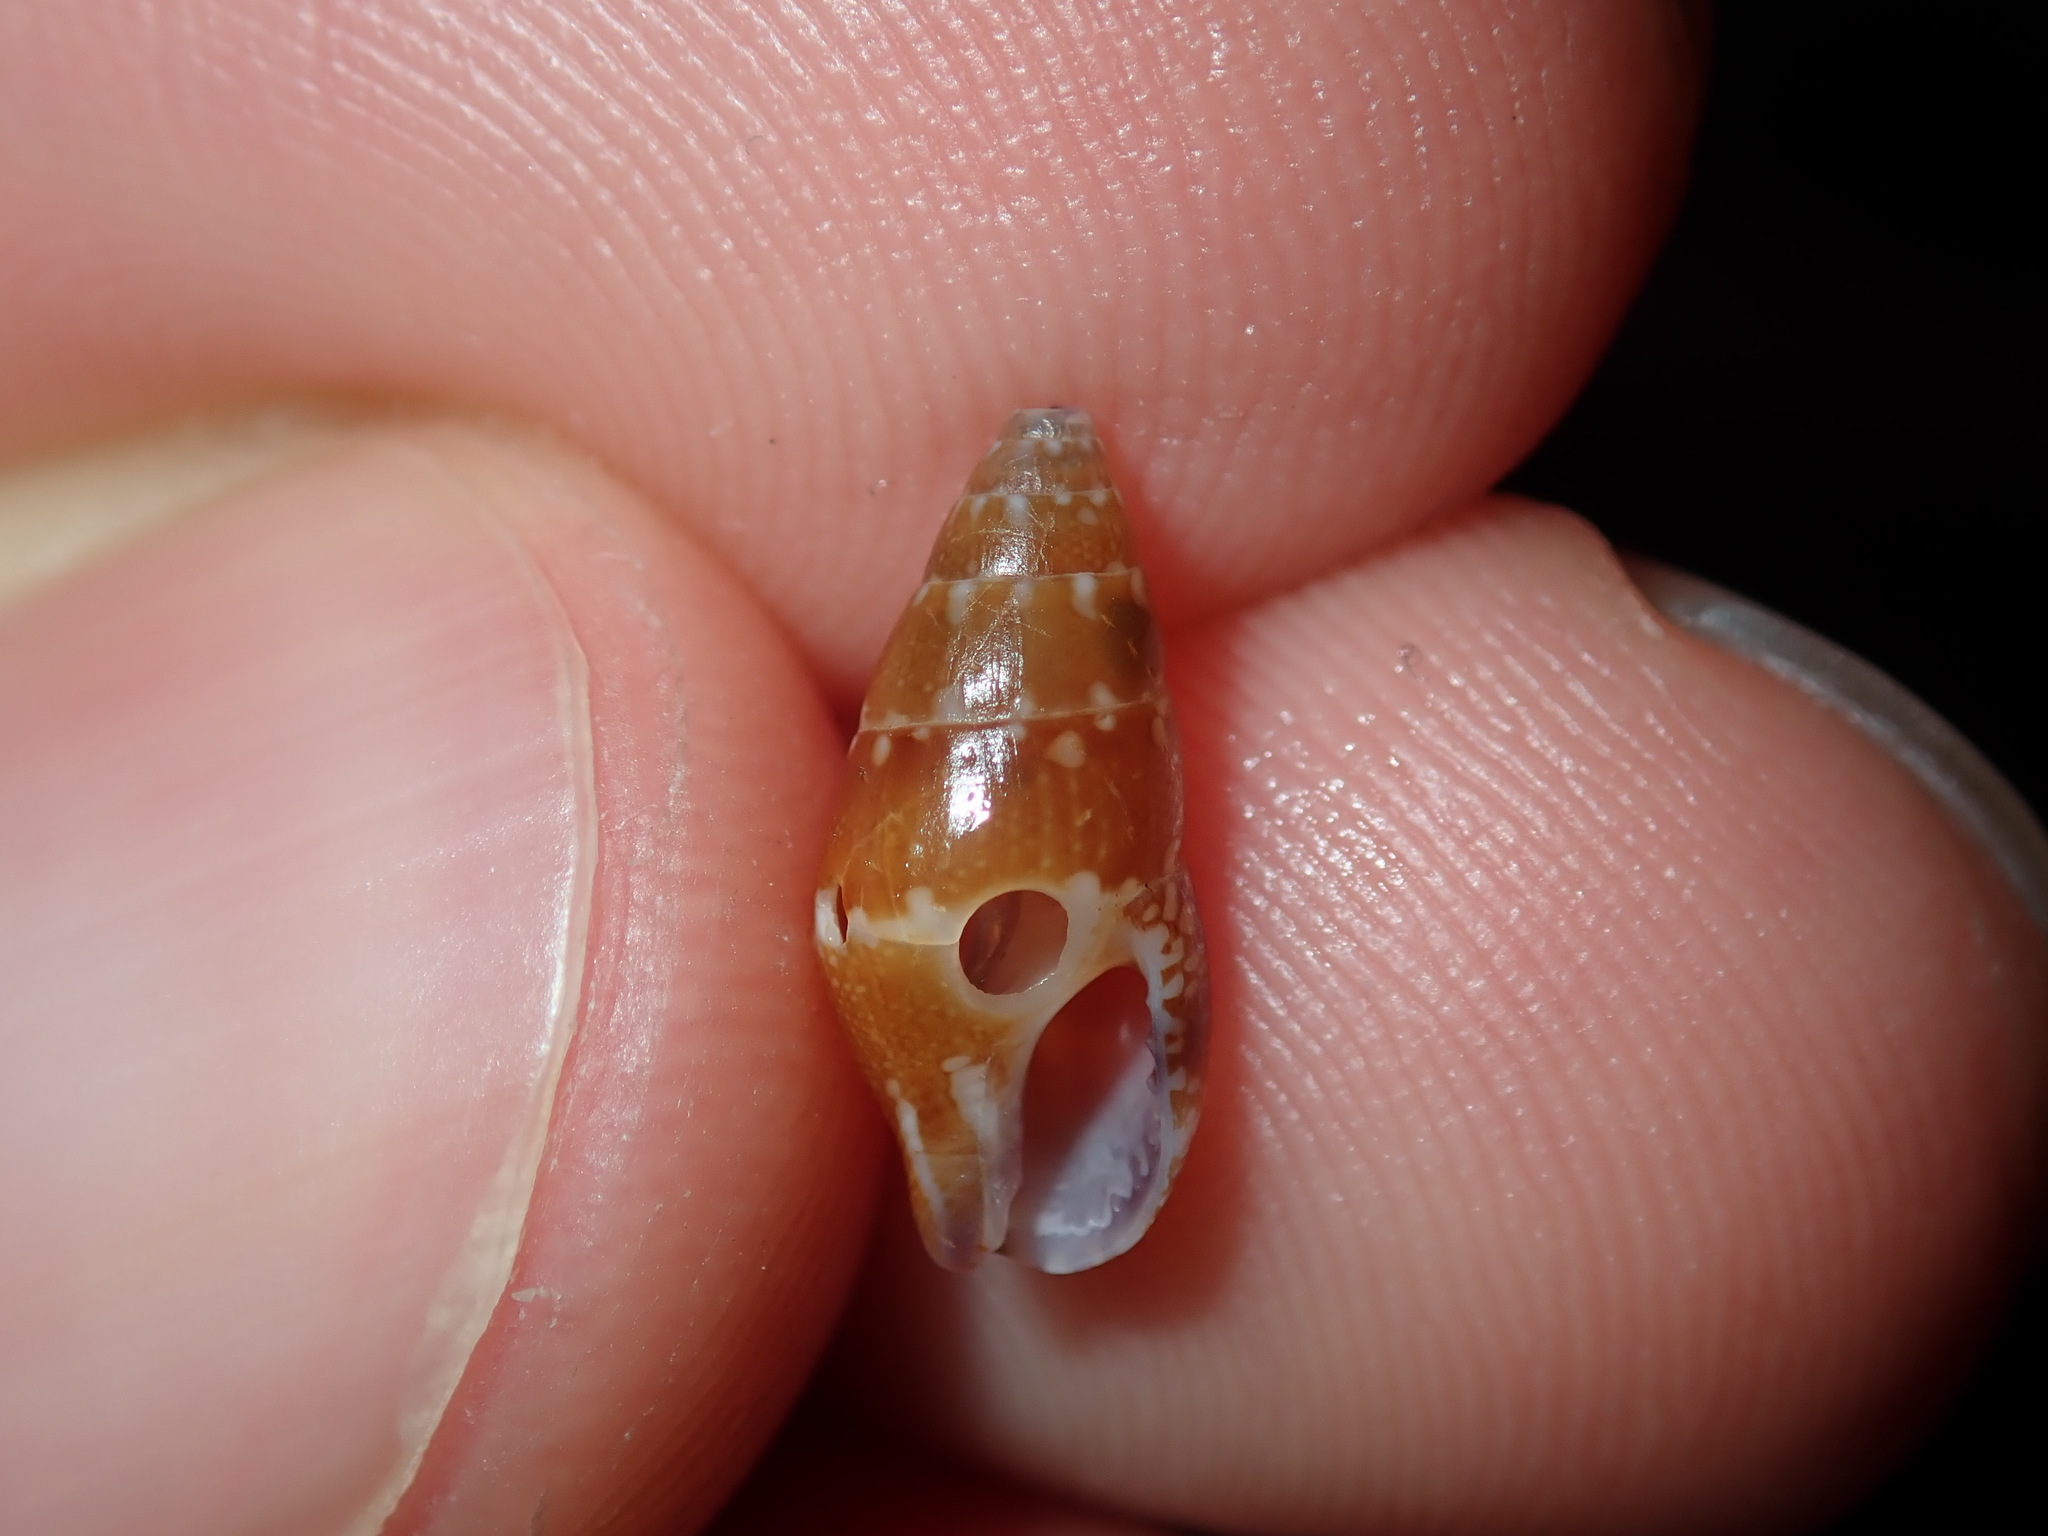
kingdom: Animalia
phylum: Mollusca
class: Gastropoda
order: Neogastropoda
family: Columbellidae
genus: Mitrella
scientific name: Mitrella bicincta
